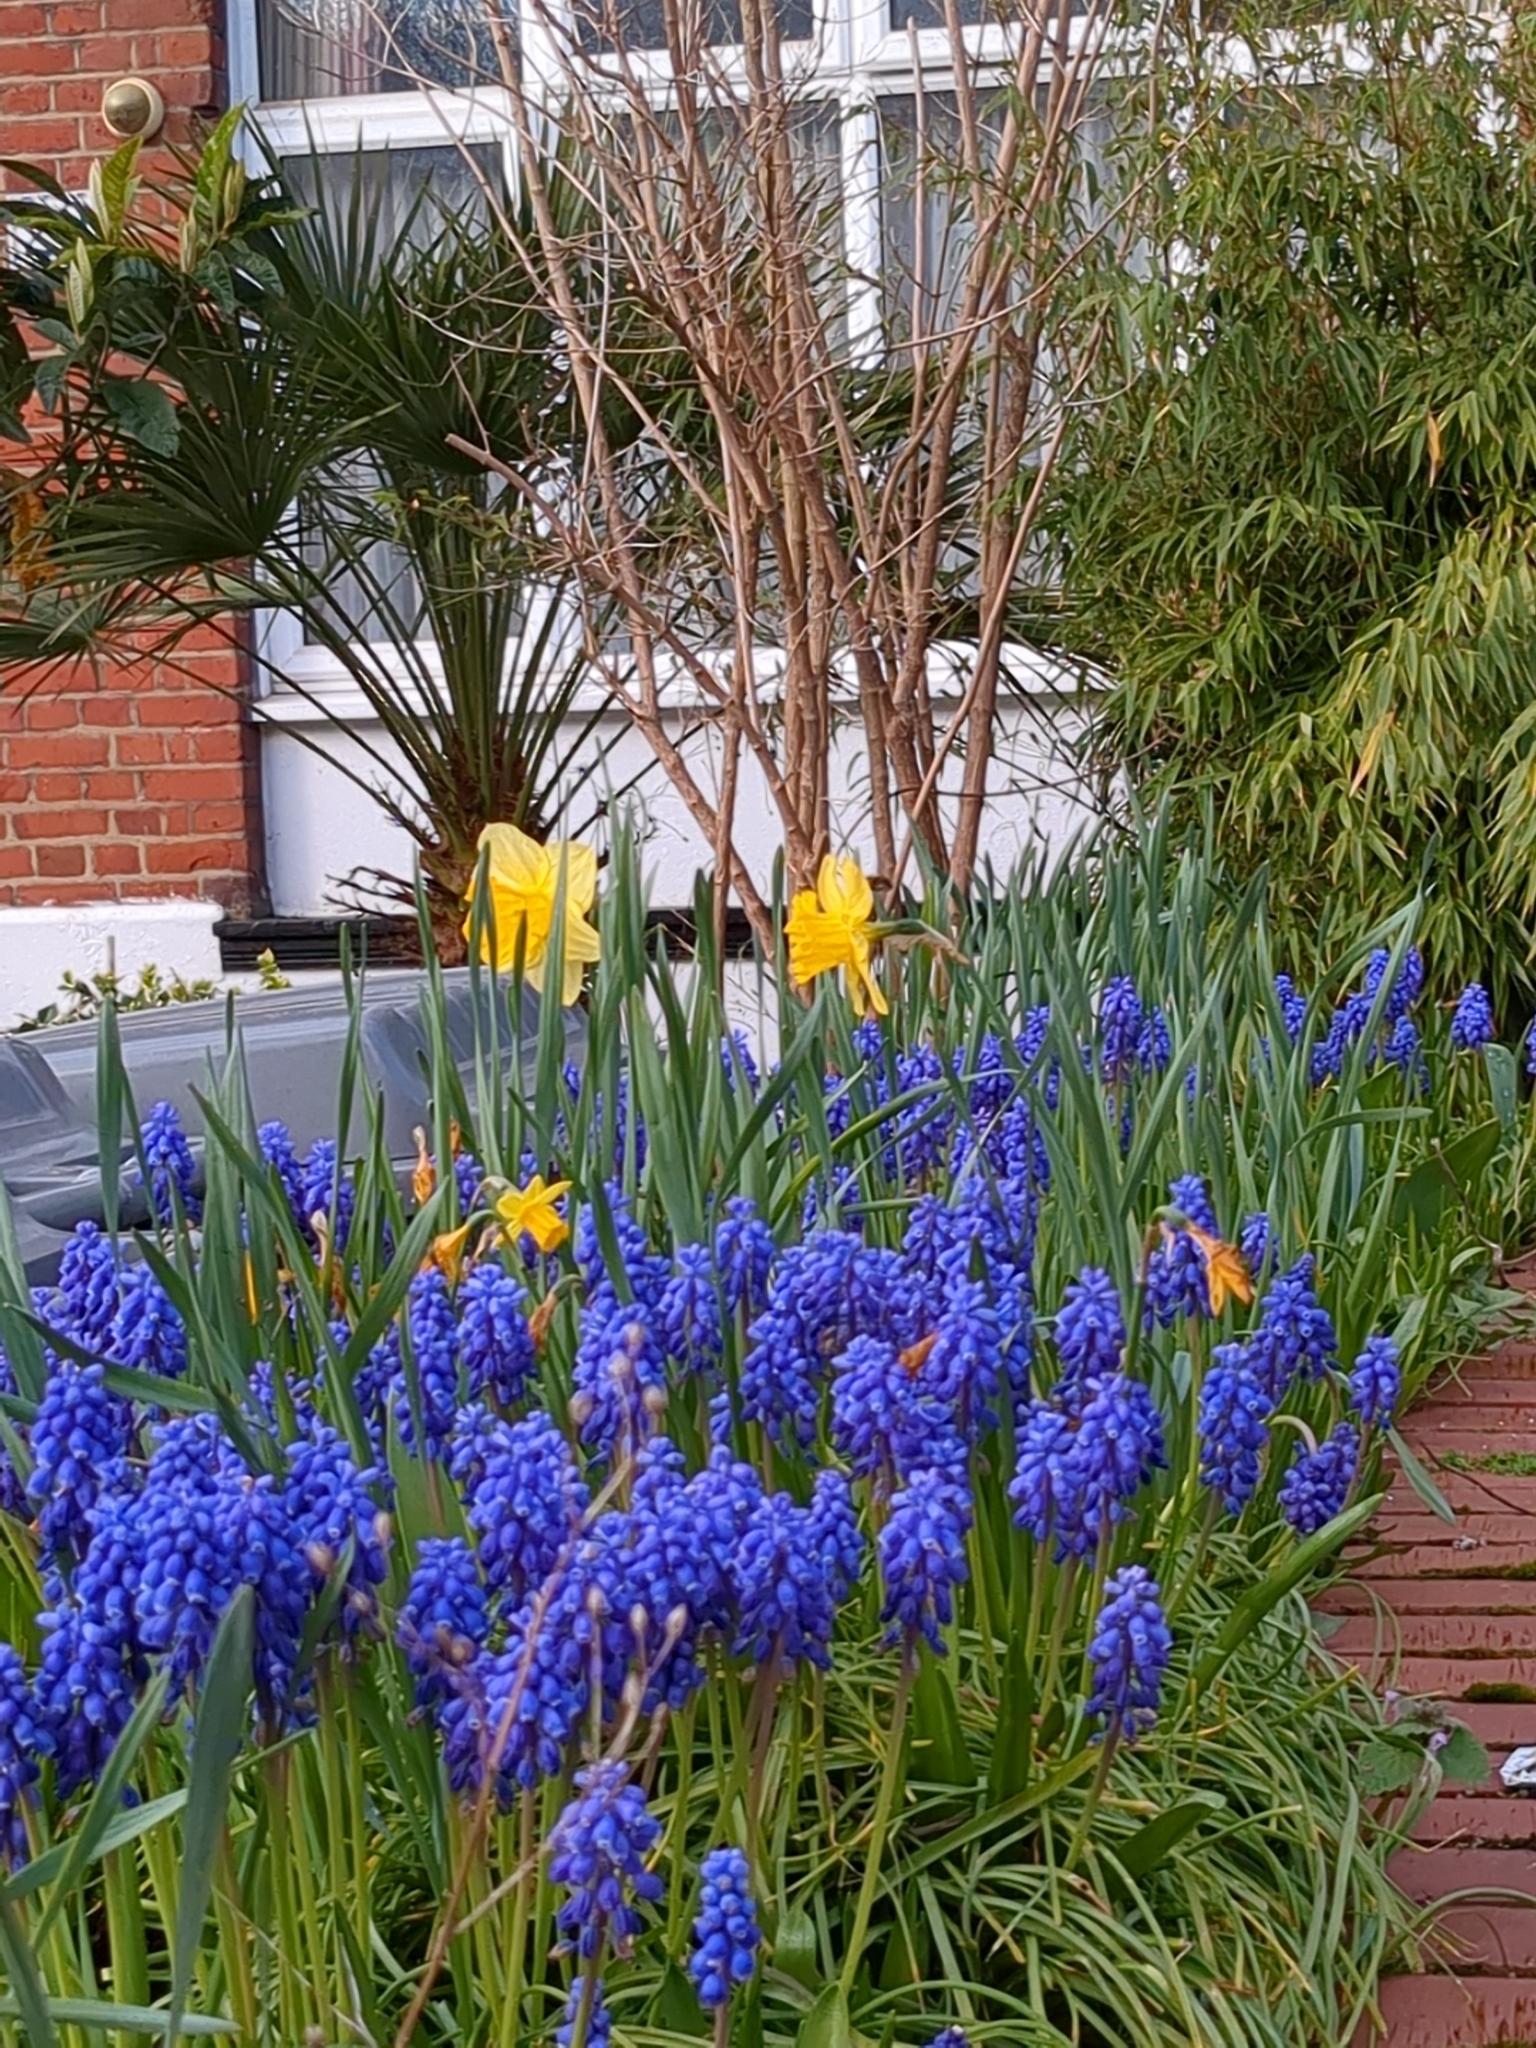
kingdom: Plantae
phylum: Tracheophyta
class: Liliopsida
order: Asparagales
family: Asparagaceae
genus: Muscari
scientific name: Muscari armeniacum
